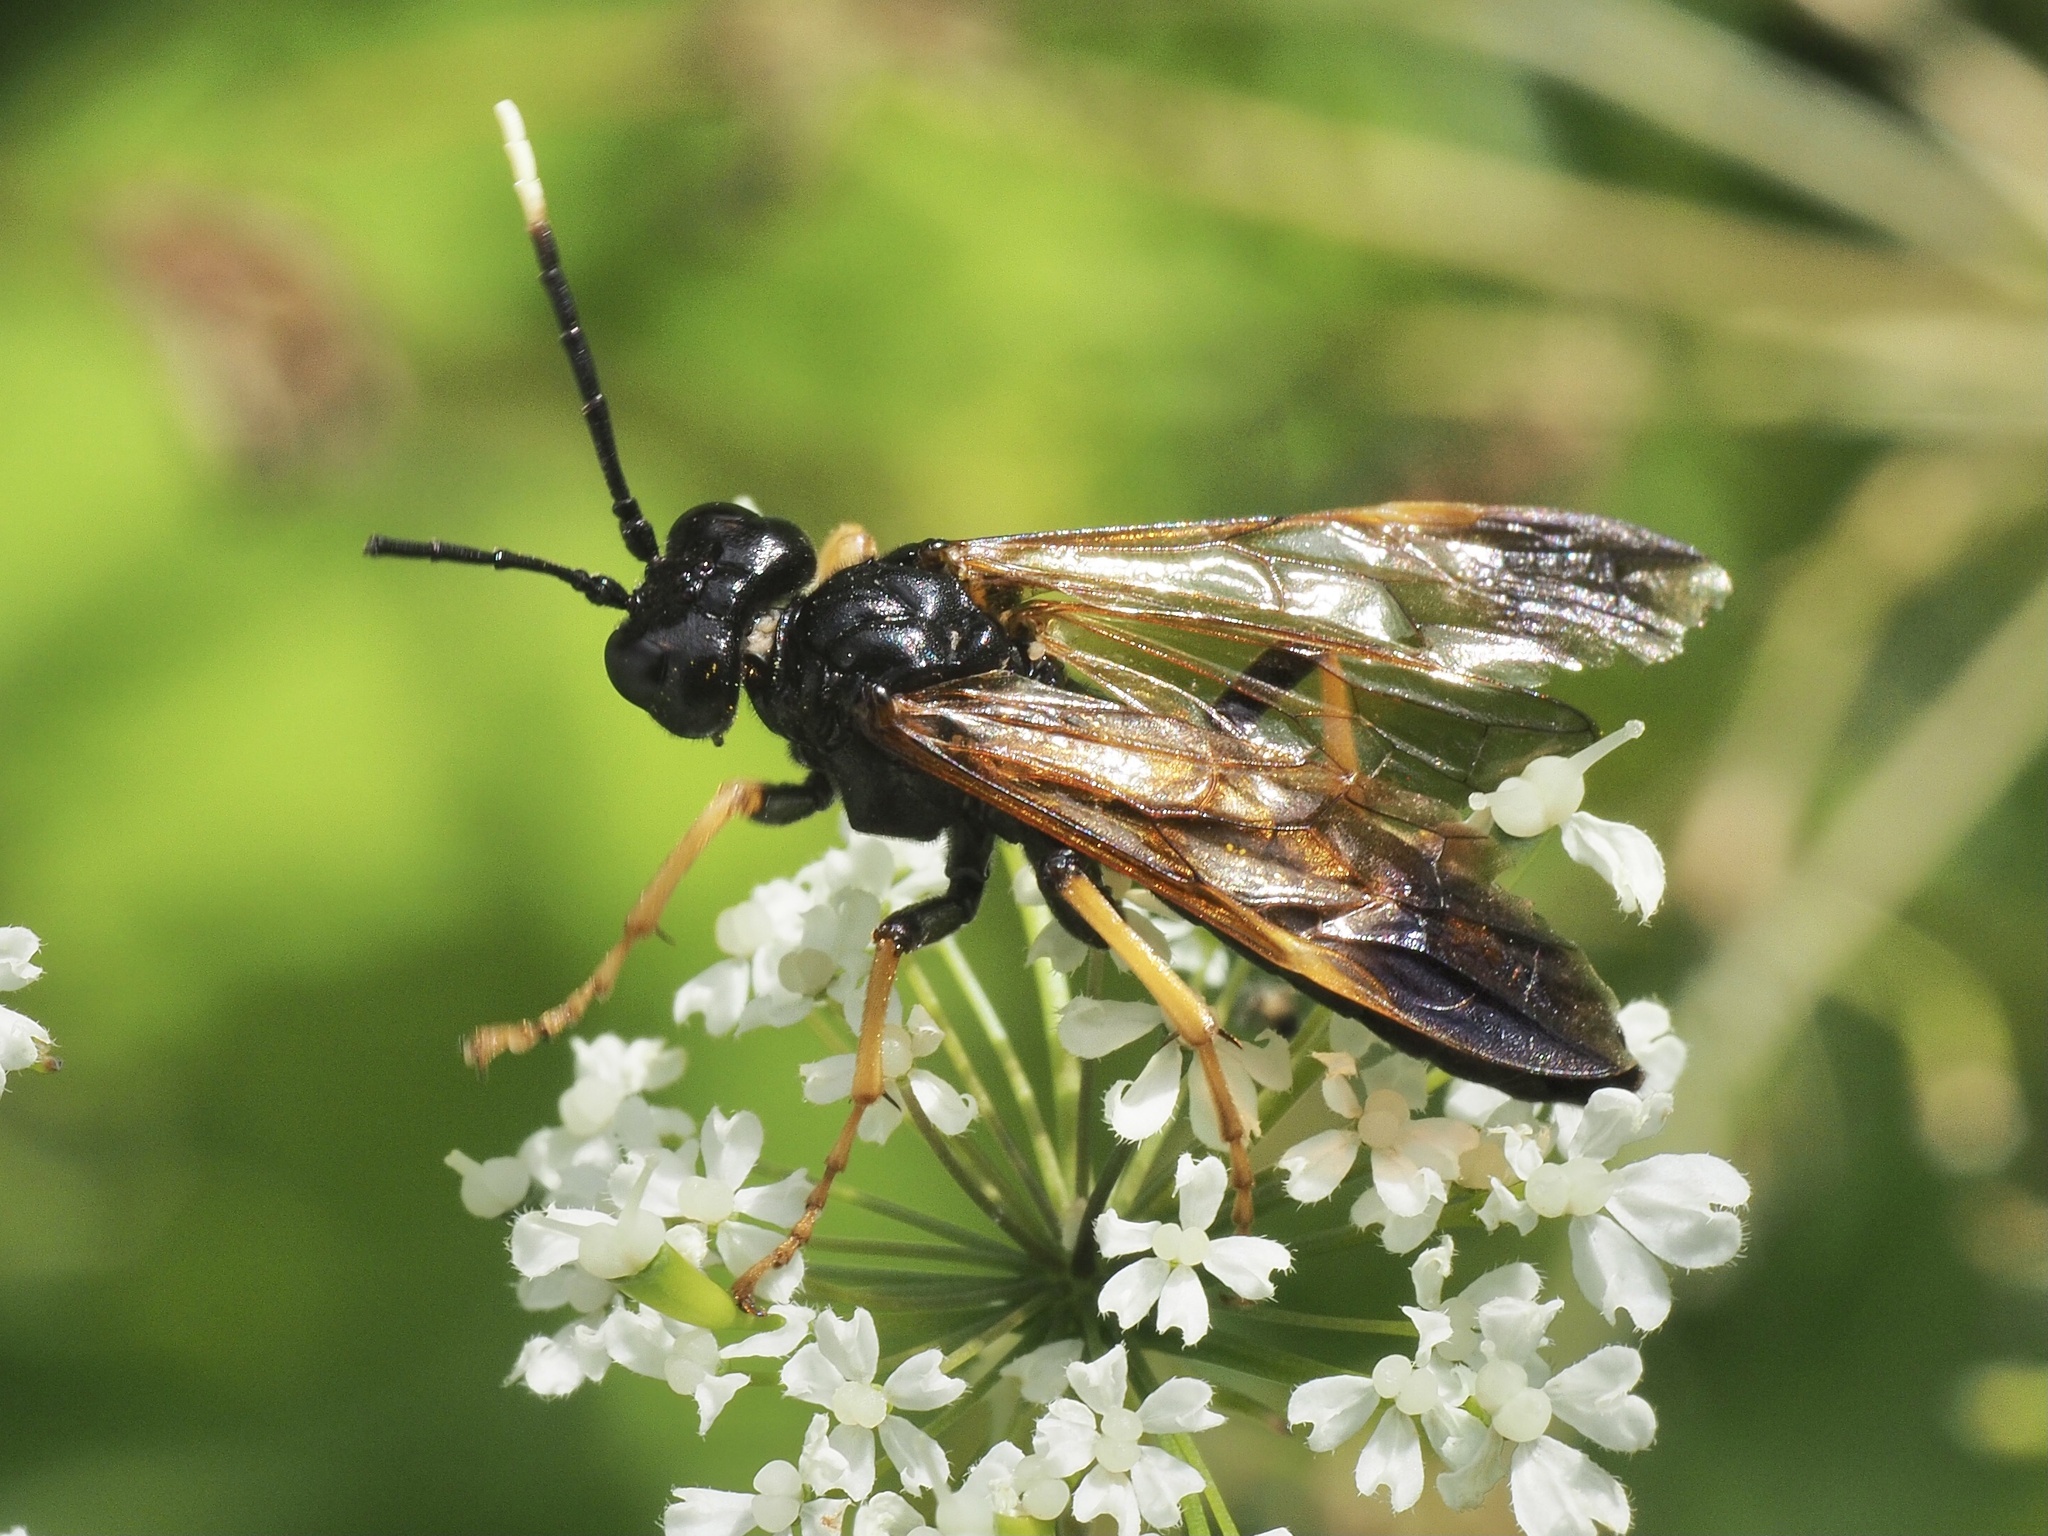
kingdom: Animalia
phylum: Arthropoda
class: Insecta
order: Hymenoptera
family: Tenthredinidae
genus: Tenthredo
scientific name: Tenthredo crassa
